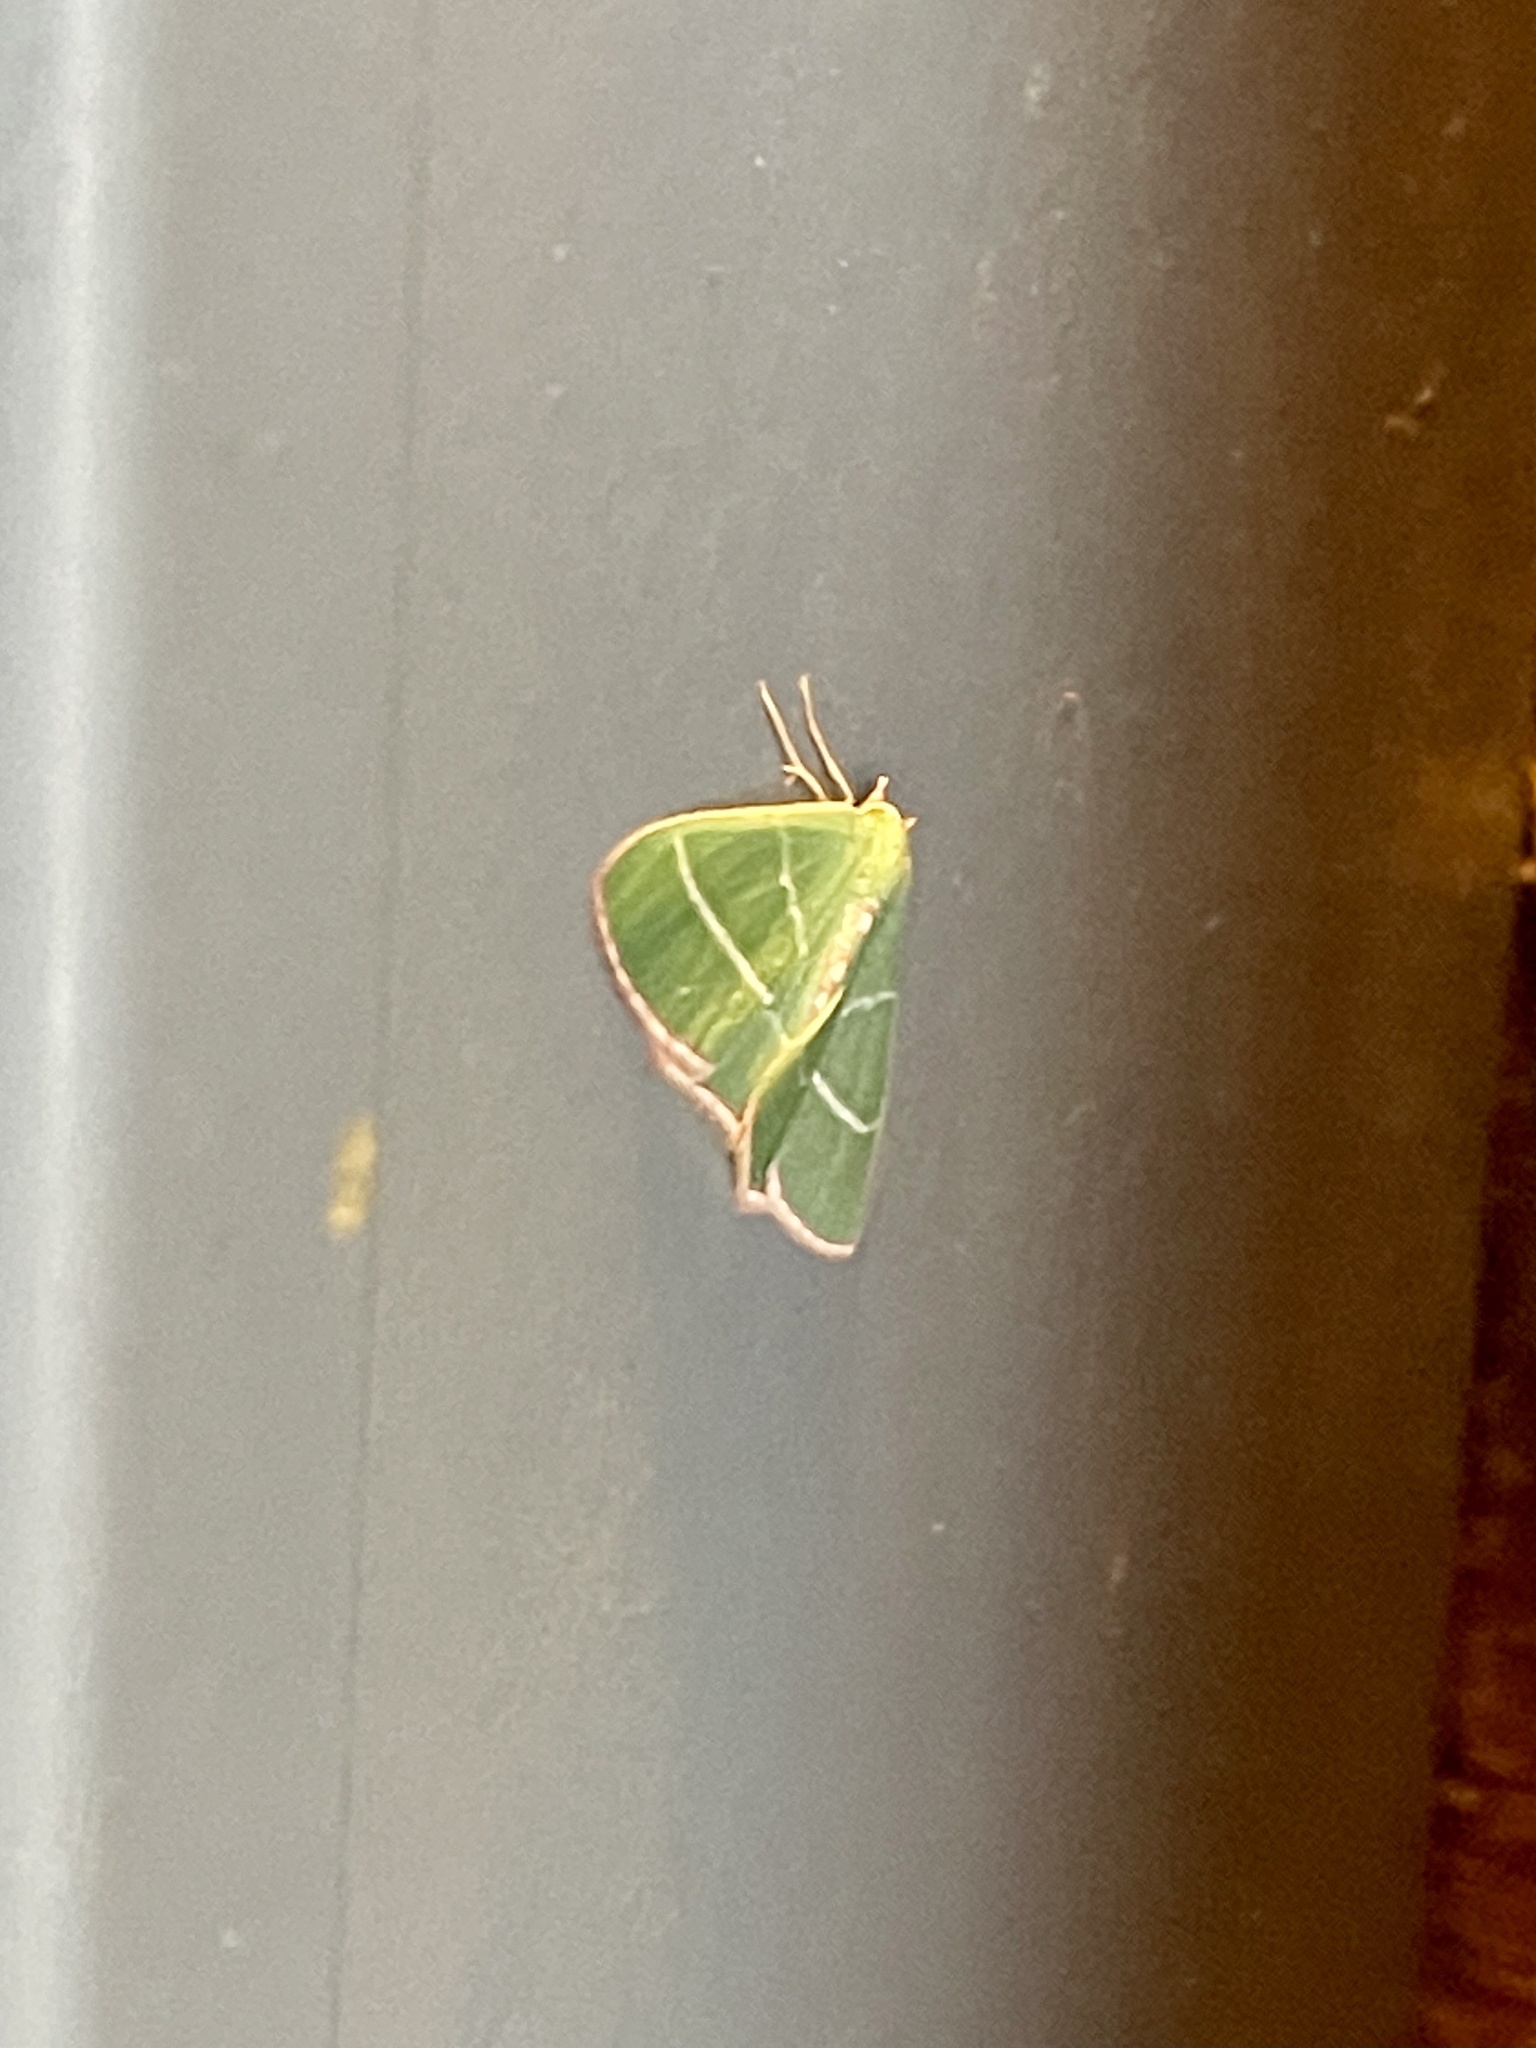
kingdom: Animalia
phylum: Arthropoda
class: Insecta
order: Lepidoptera
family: Geometridae
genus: Nemoria
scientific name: Nemoria obliqua
